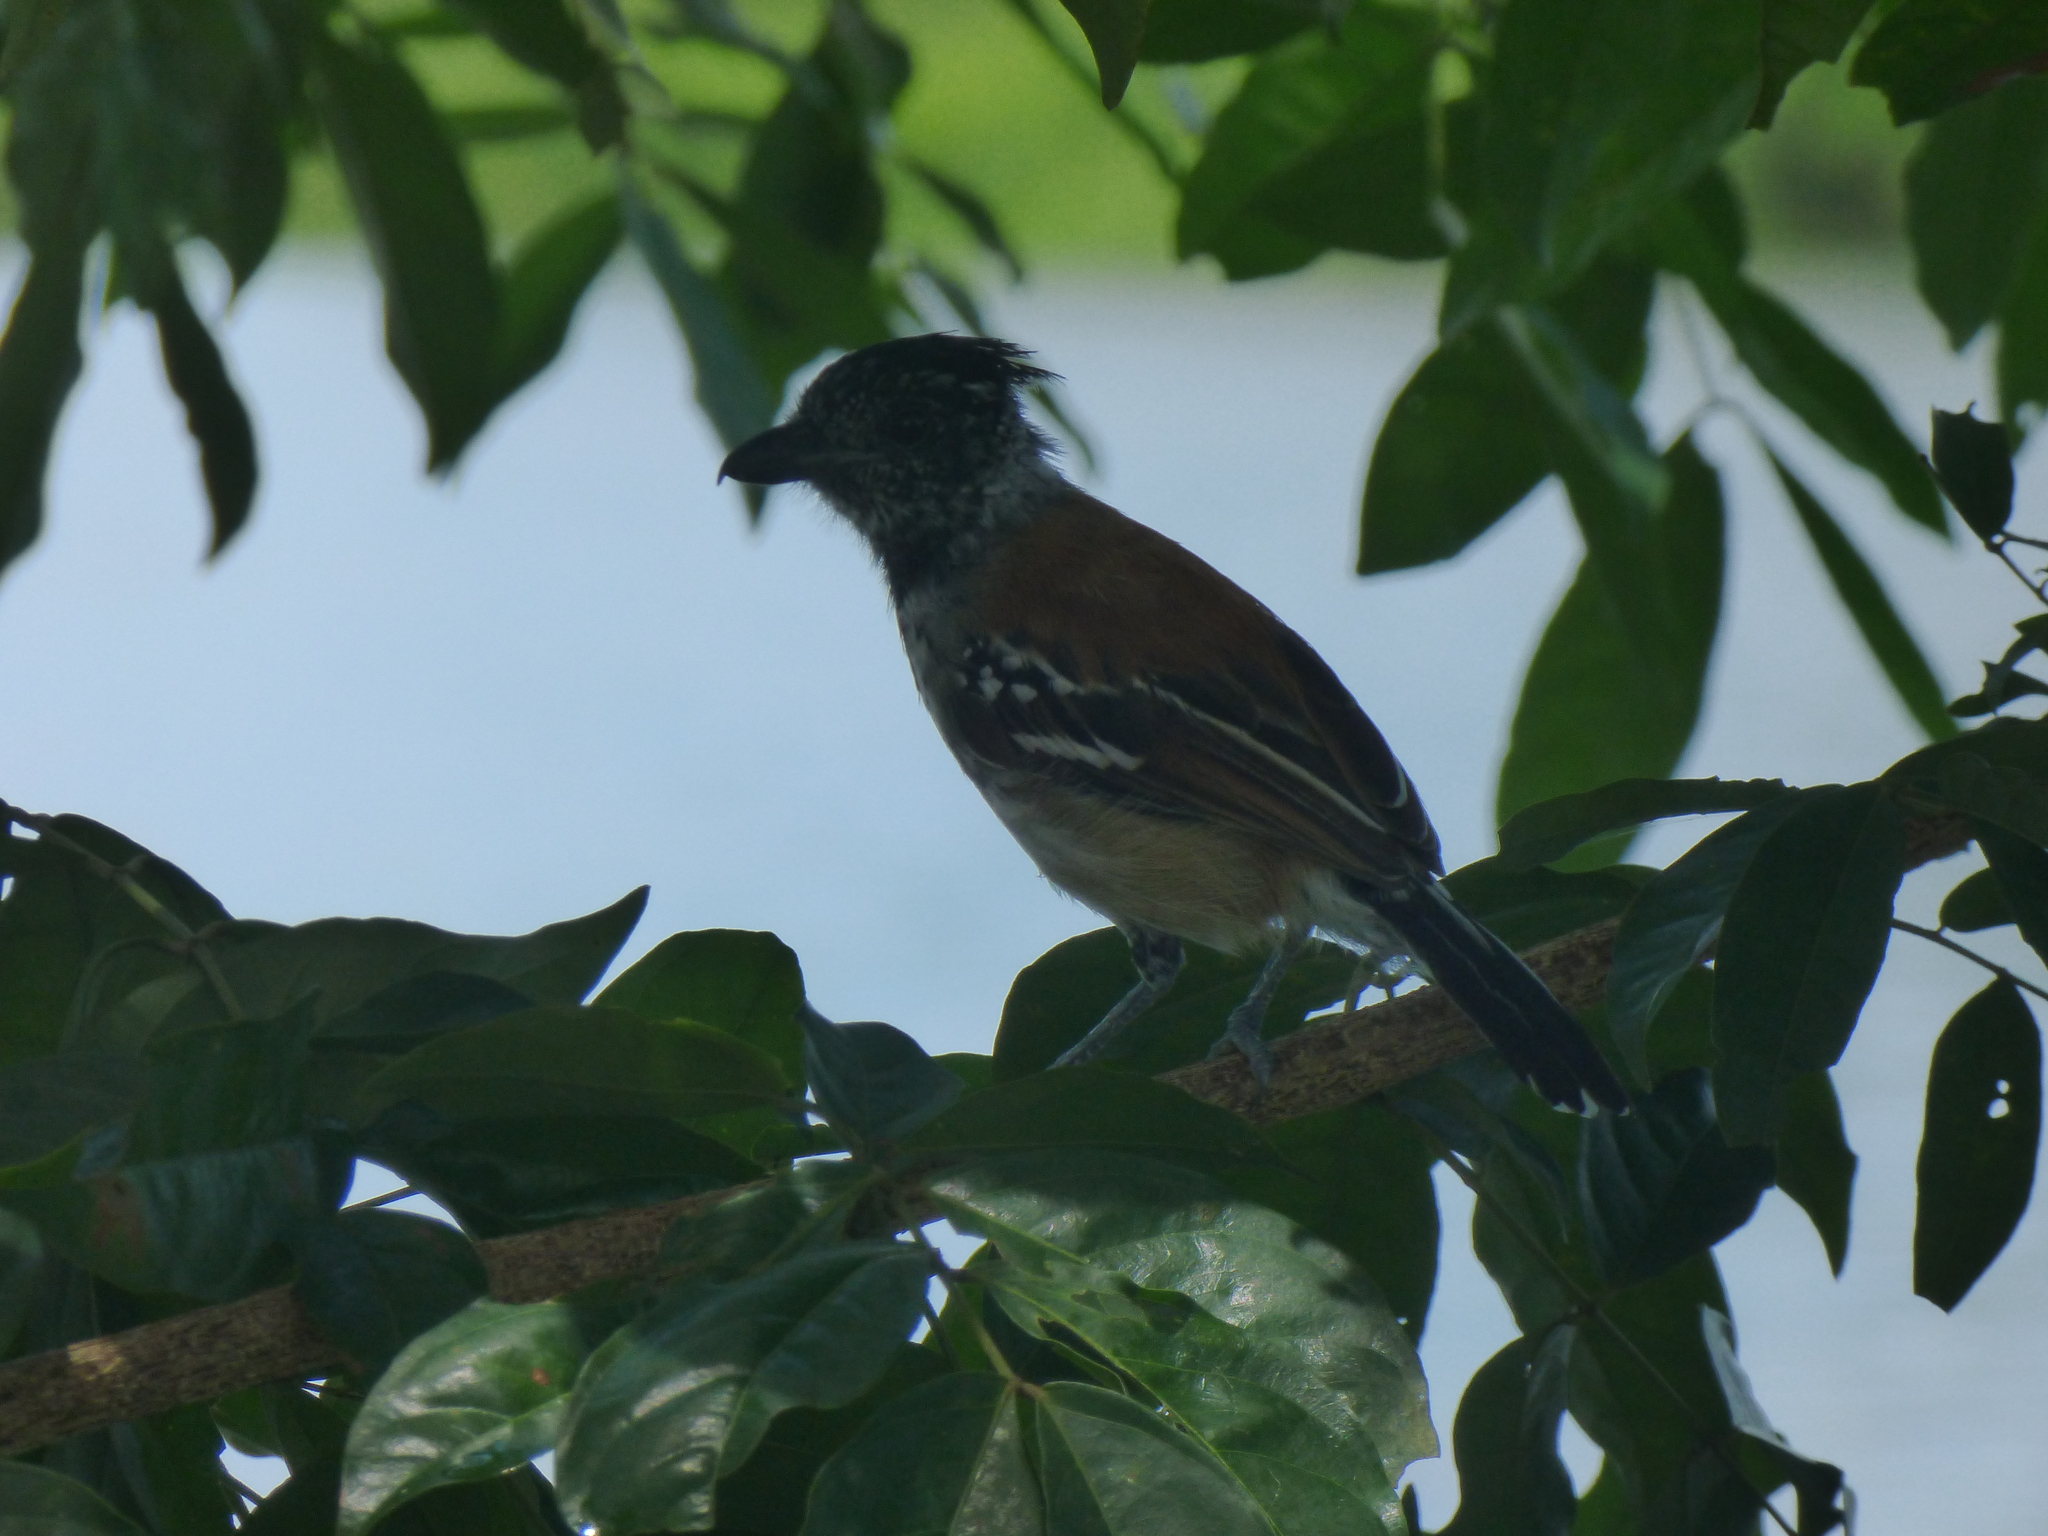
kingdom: Animalia
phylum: Chordata
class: Aves
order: Passeriformes
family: Thamnophilidae
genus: Sakesphorus
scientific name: Sakesphorus canadensis
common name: Black-crested antshrike
